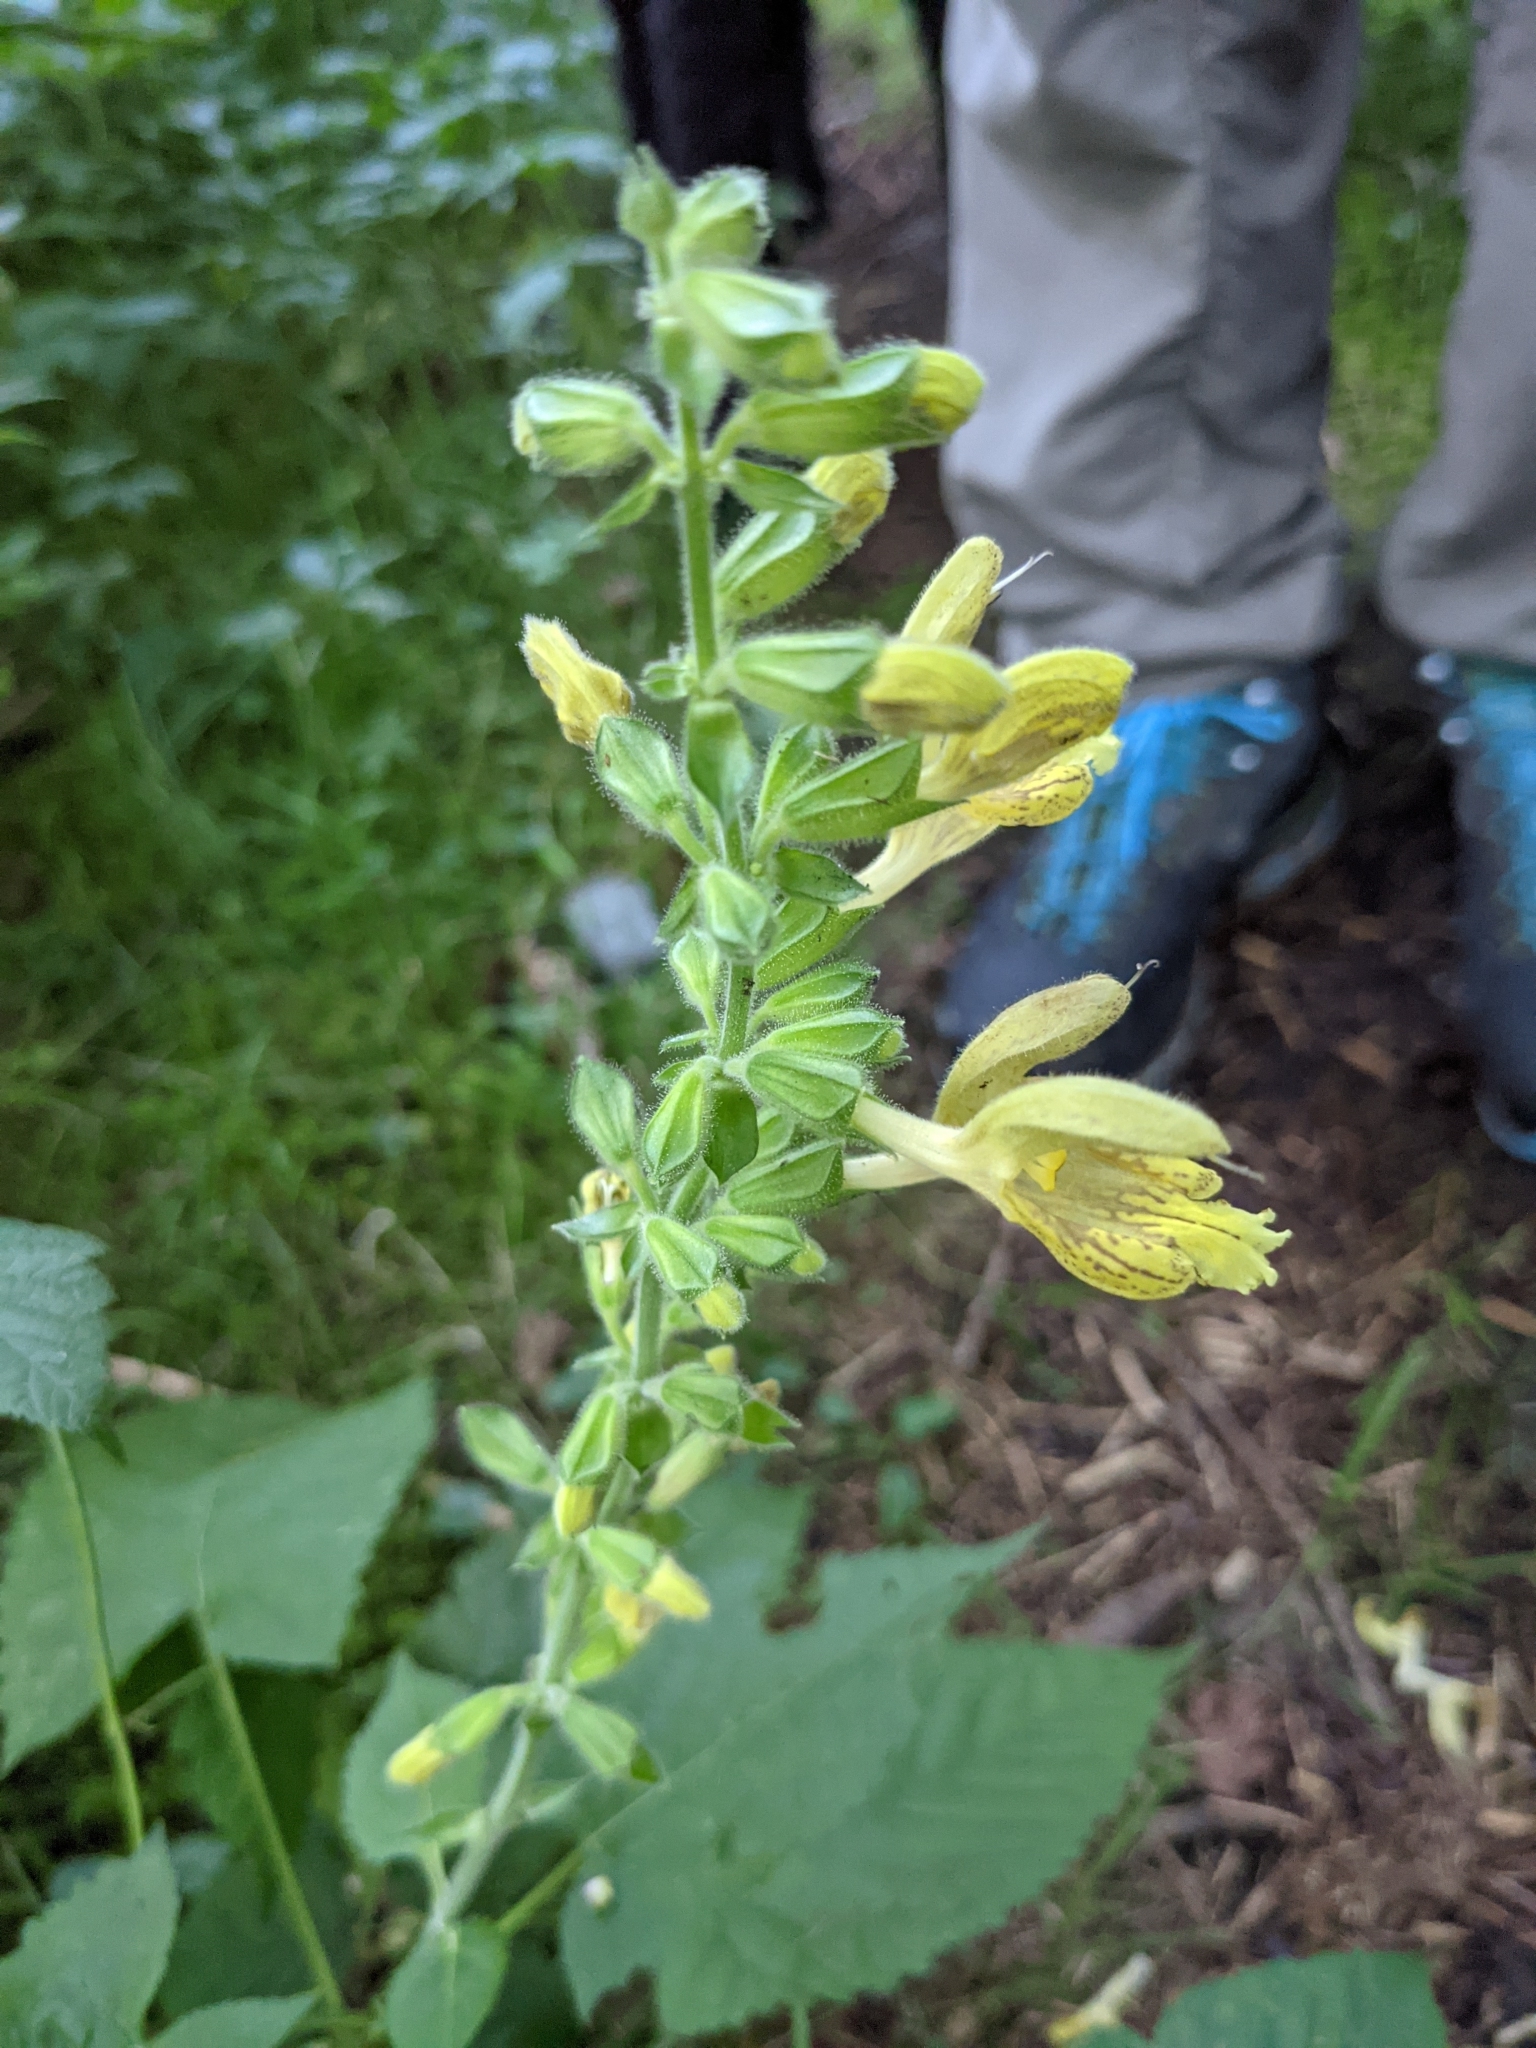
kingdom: Plantae
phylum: Tracheophyta
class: Magnoliopsida
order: Lamiales
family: Lamiaceae
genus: Salvia
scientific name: Salvia glutinosa
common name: Sticky clary
